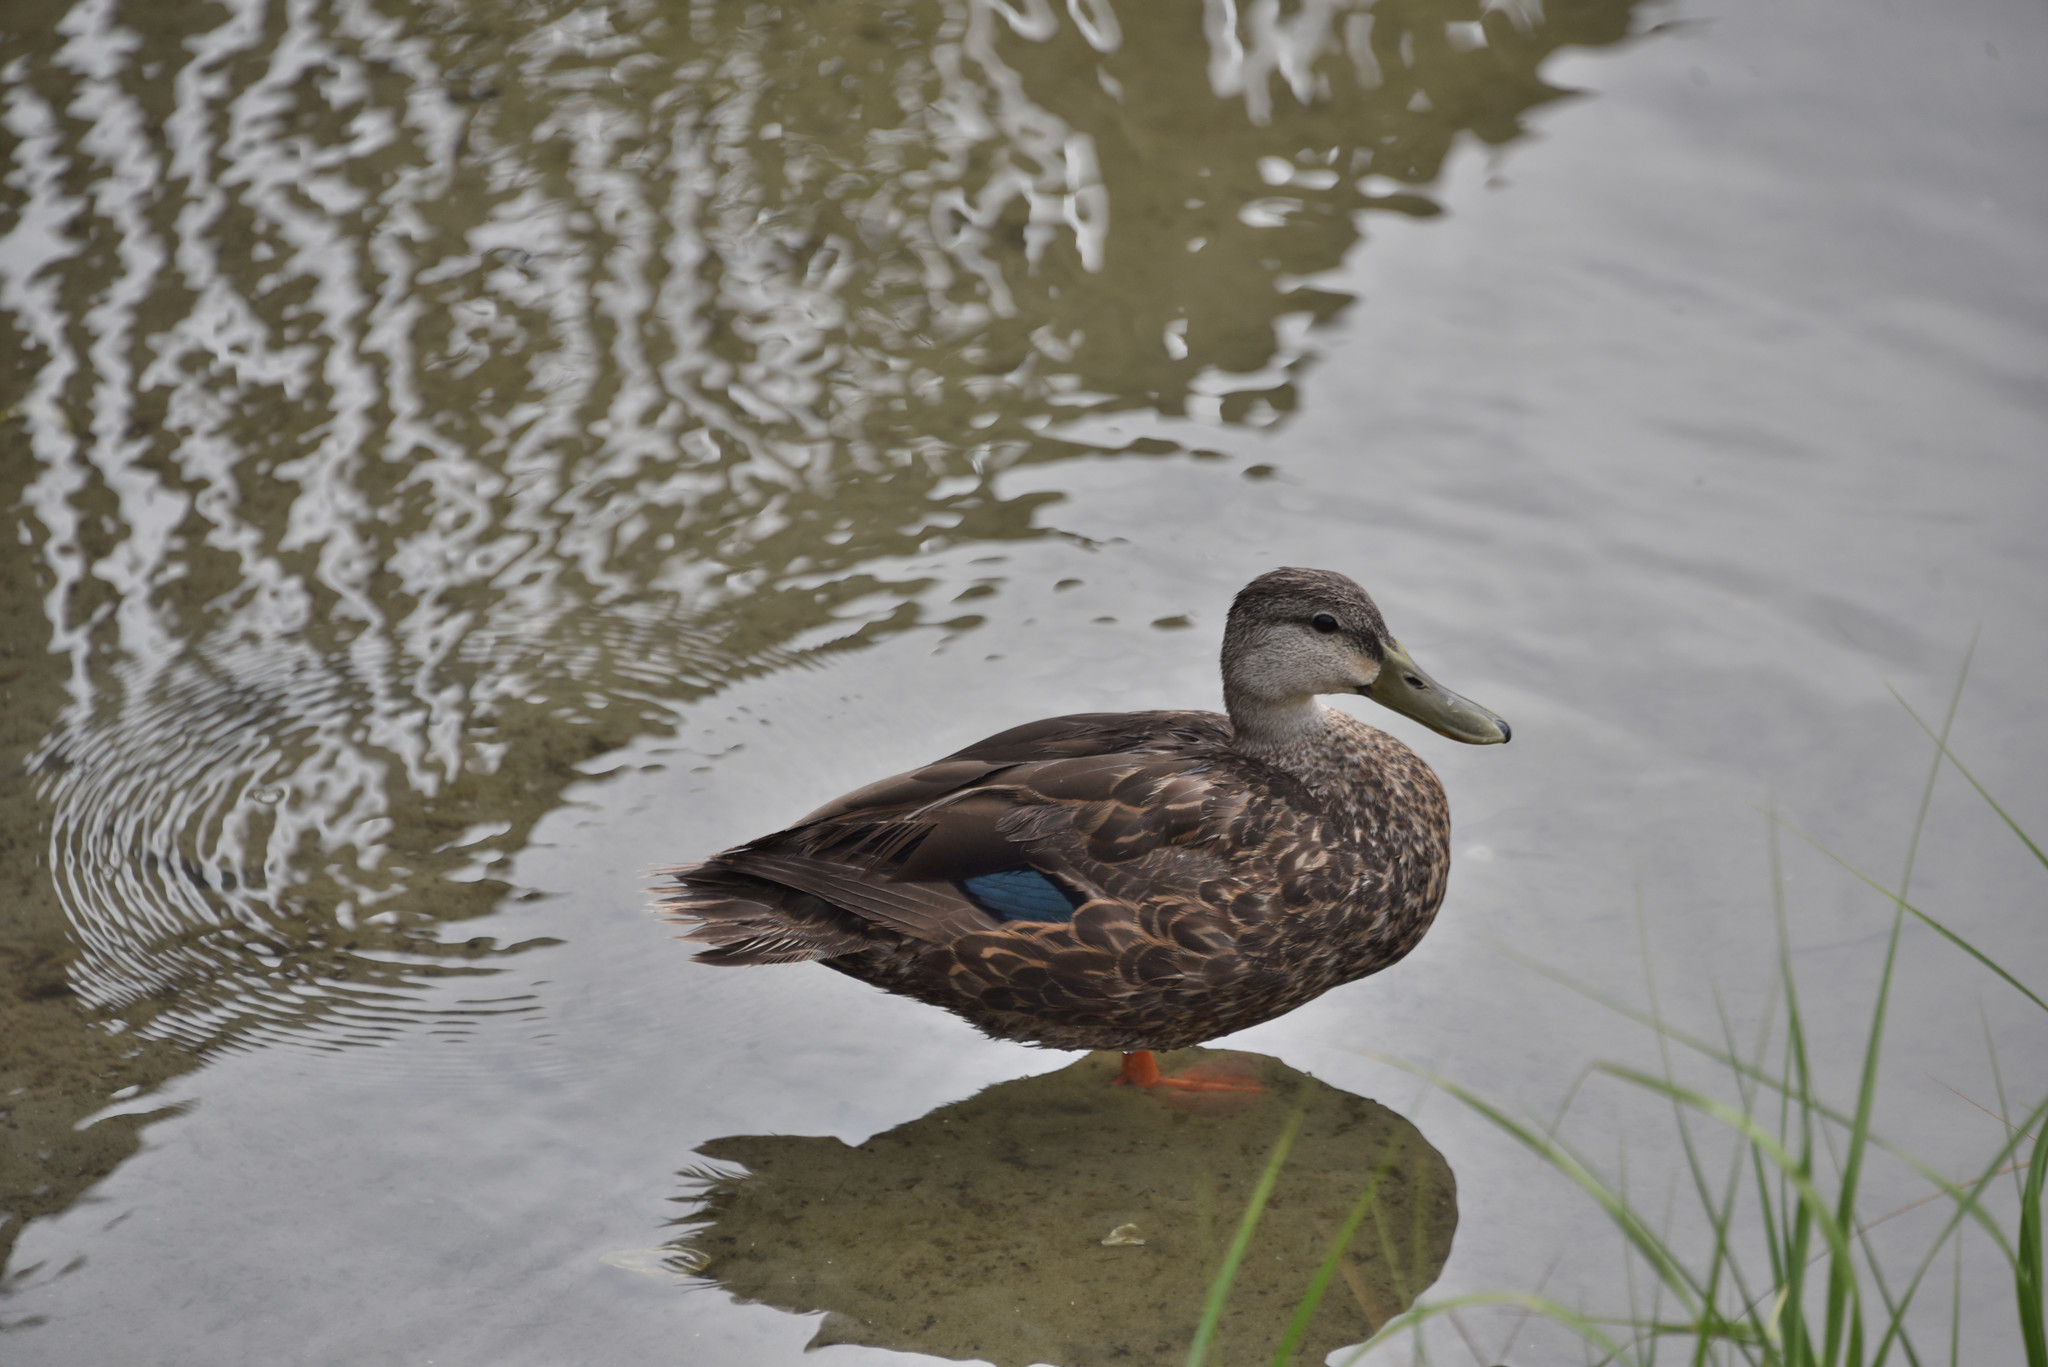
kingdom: Animalia
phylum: Chordata
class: Aves
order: Anseriformes
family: Anatidae
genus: Anas
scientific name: Anas fulvigula
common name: Mottled duck
